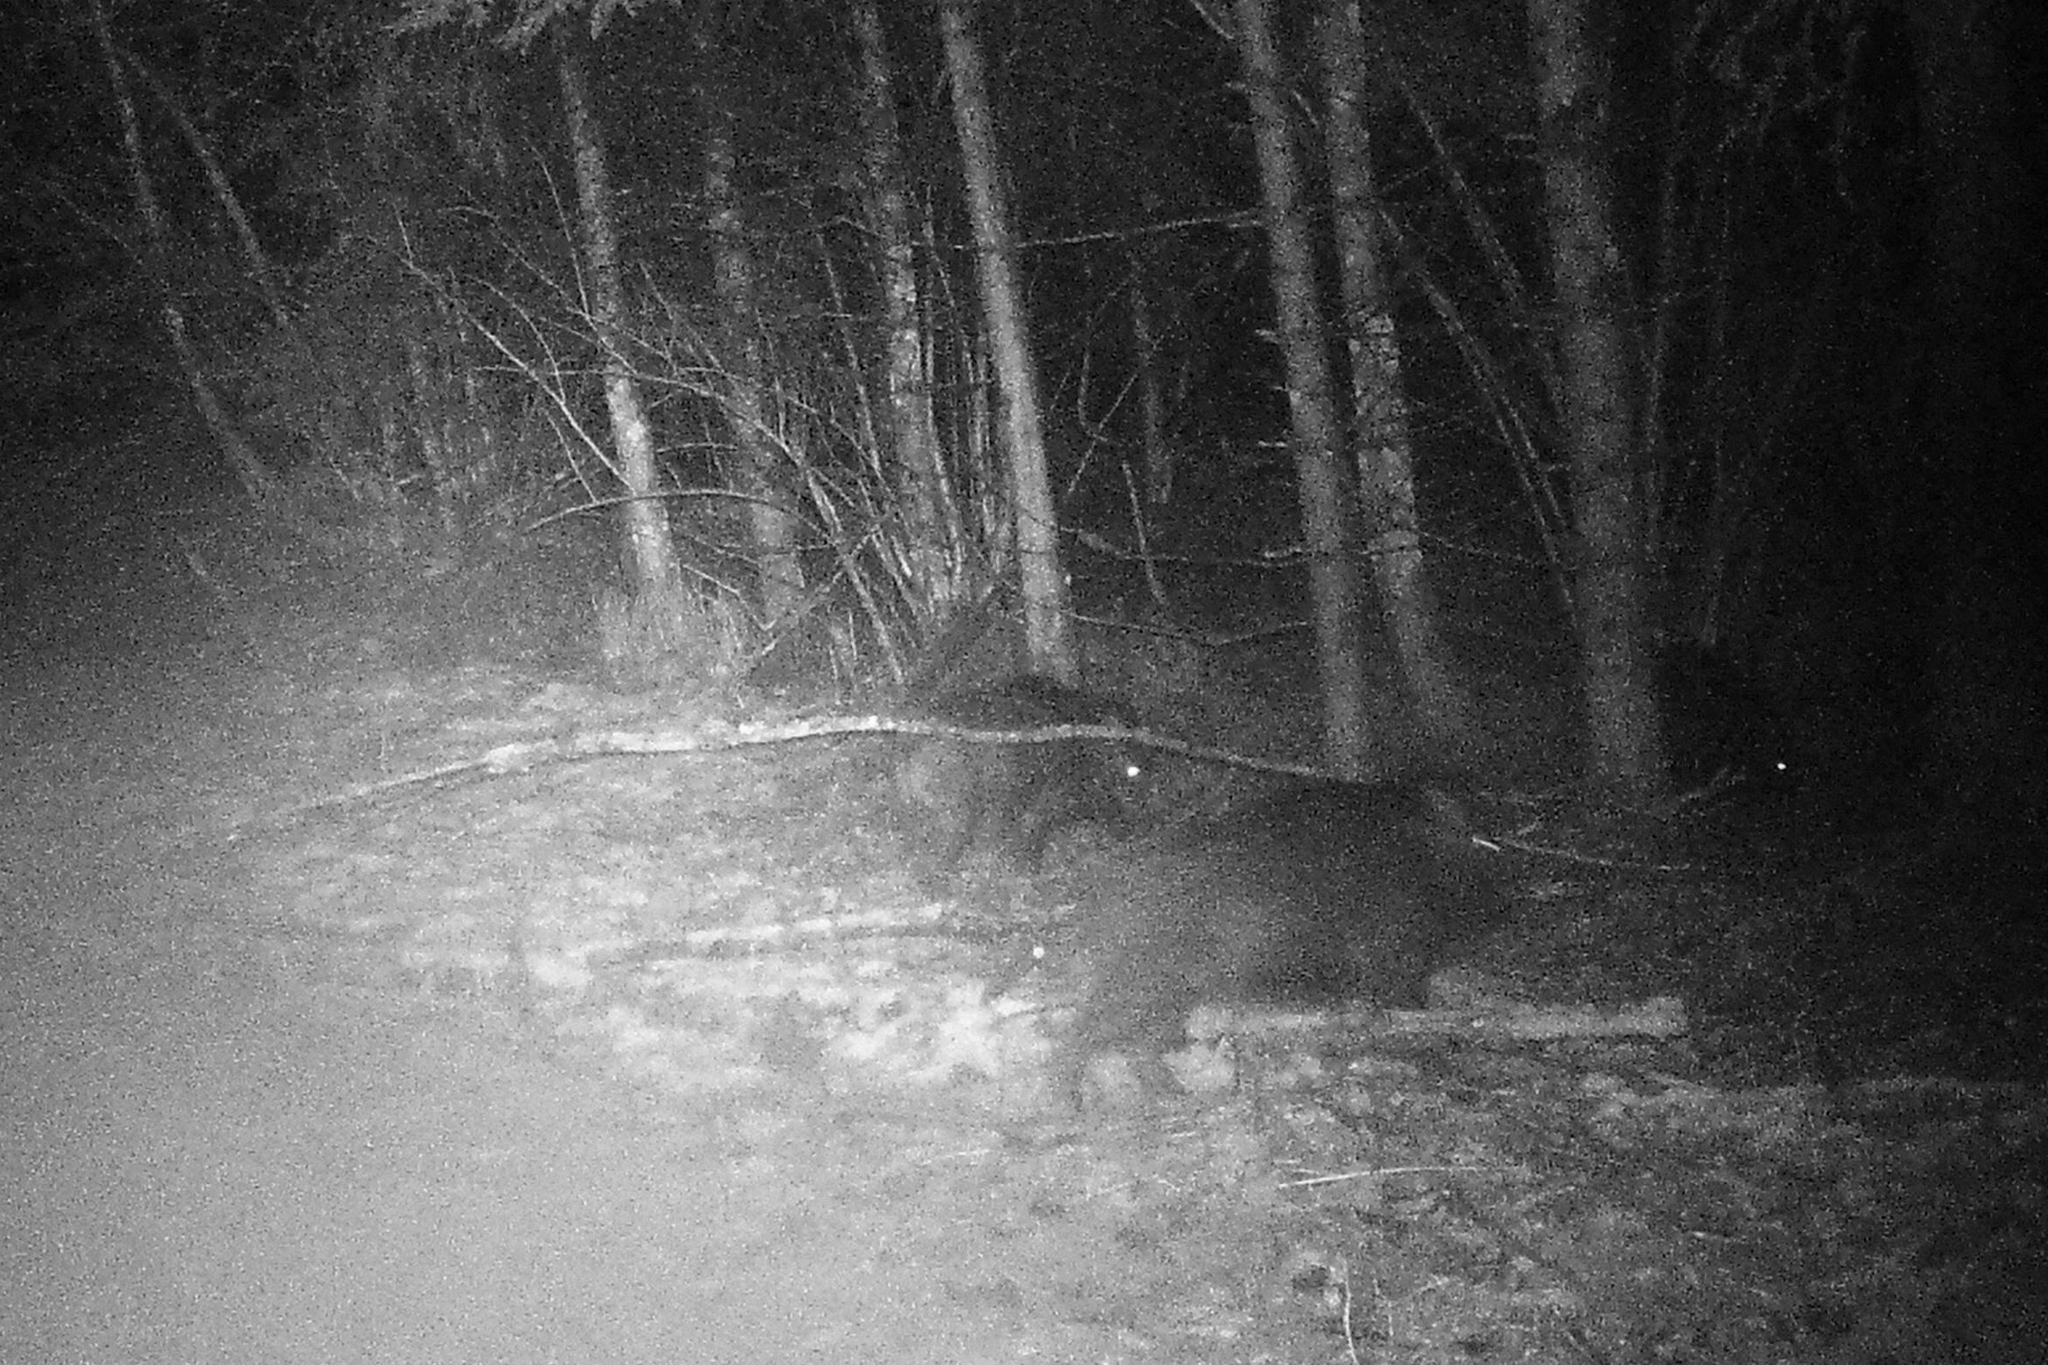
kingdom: Animalia
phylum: Chordata
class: Mammalia
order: Artiodactyla
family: Suidae
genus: Sus
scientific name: Sus scrofa
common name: Wild boar
